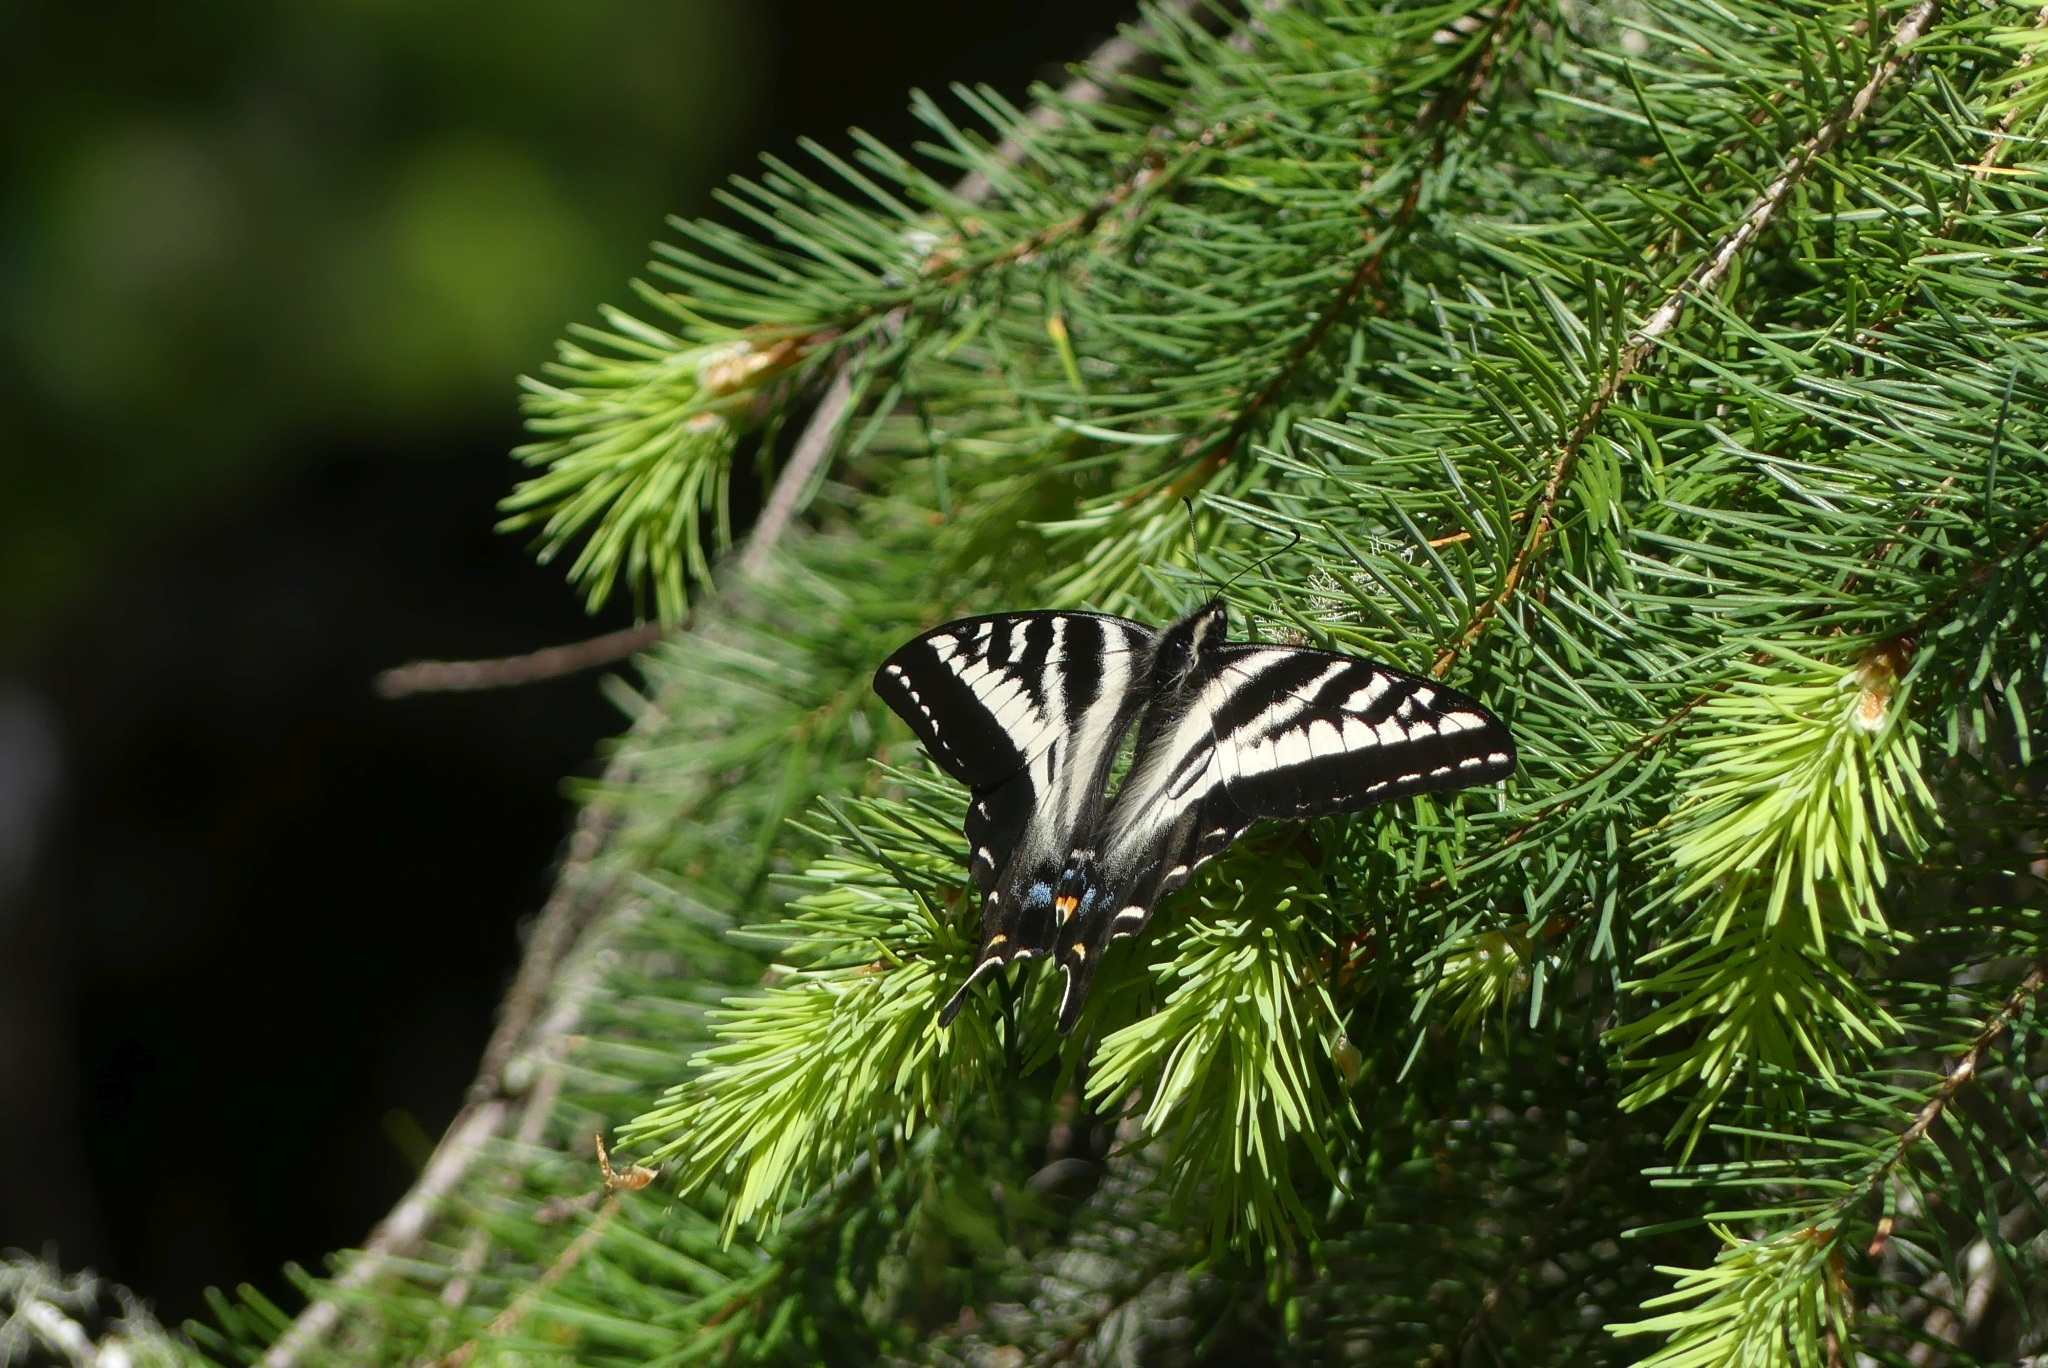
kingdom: Animalia
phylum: Arthropoda
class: Insecta
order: Lepidoptera
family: Papilionidae
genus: Papilio
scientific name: Papilio eurymedon
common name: Pale tiger swallowtail
